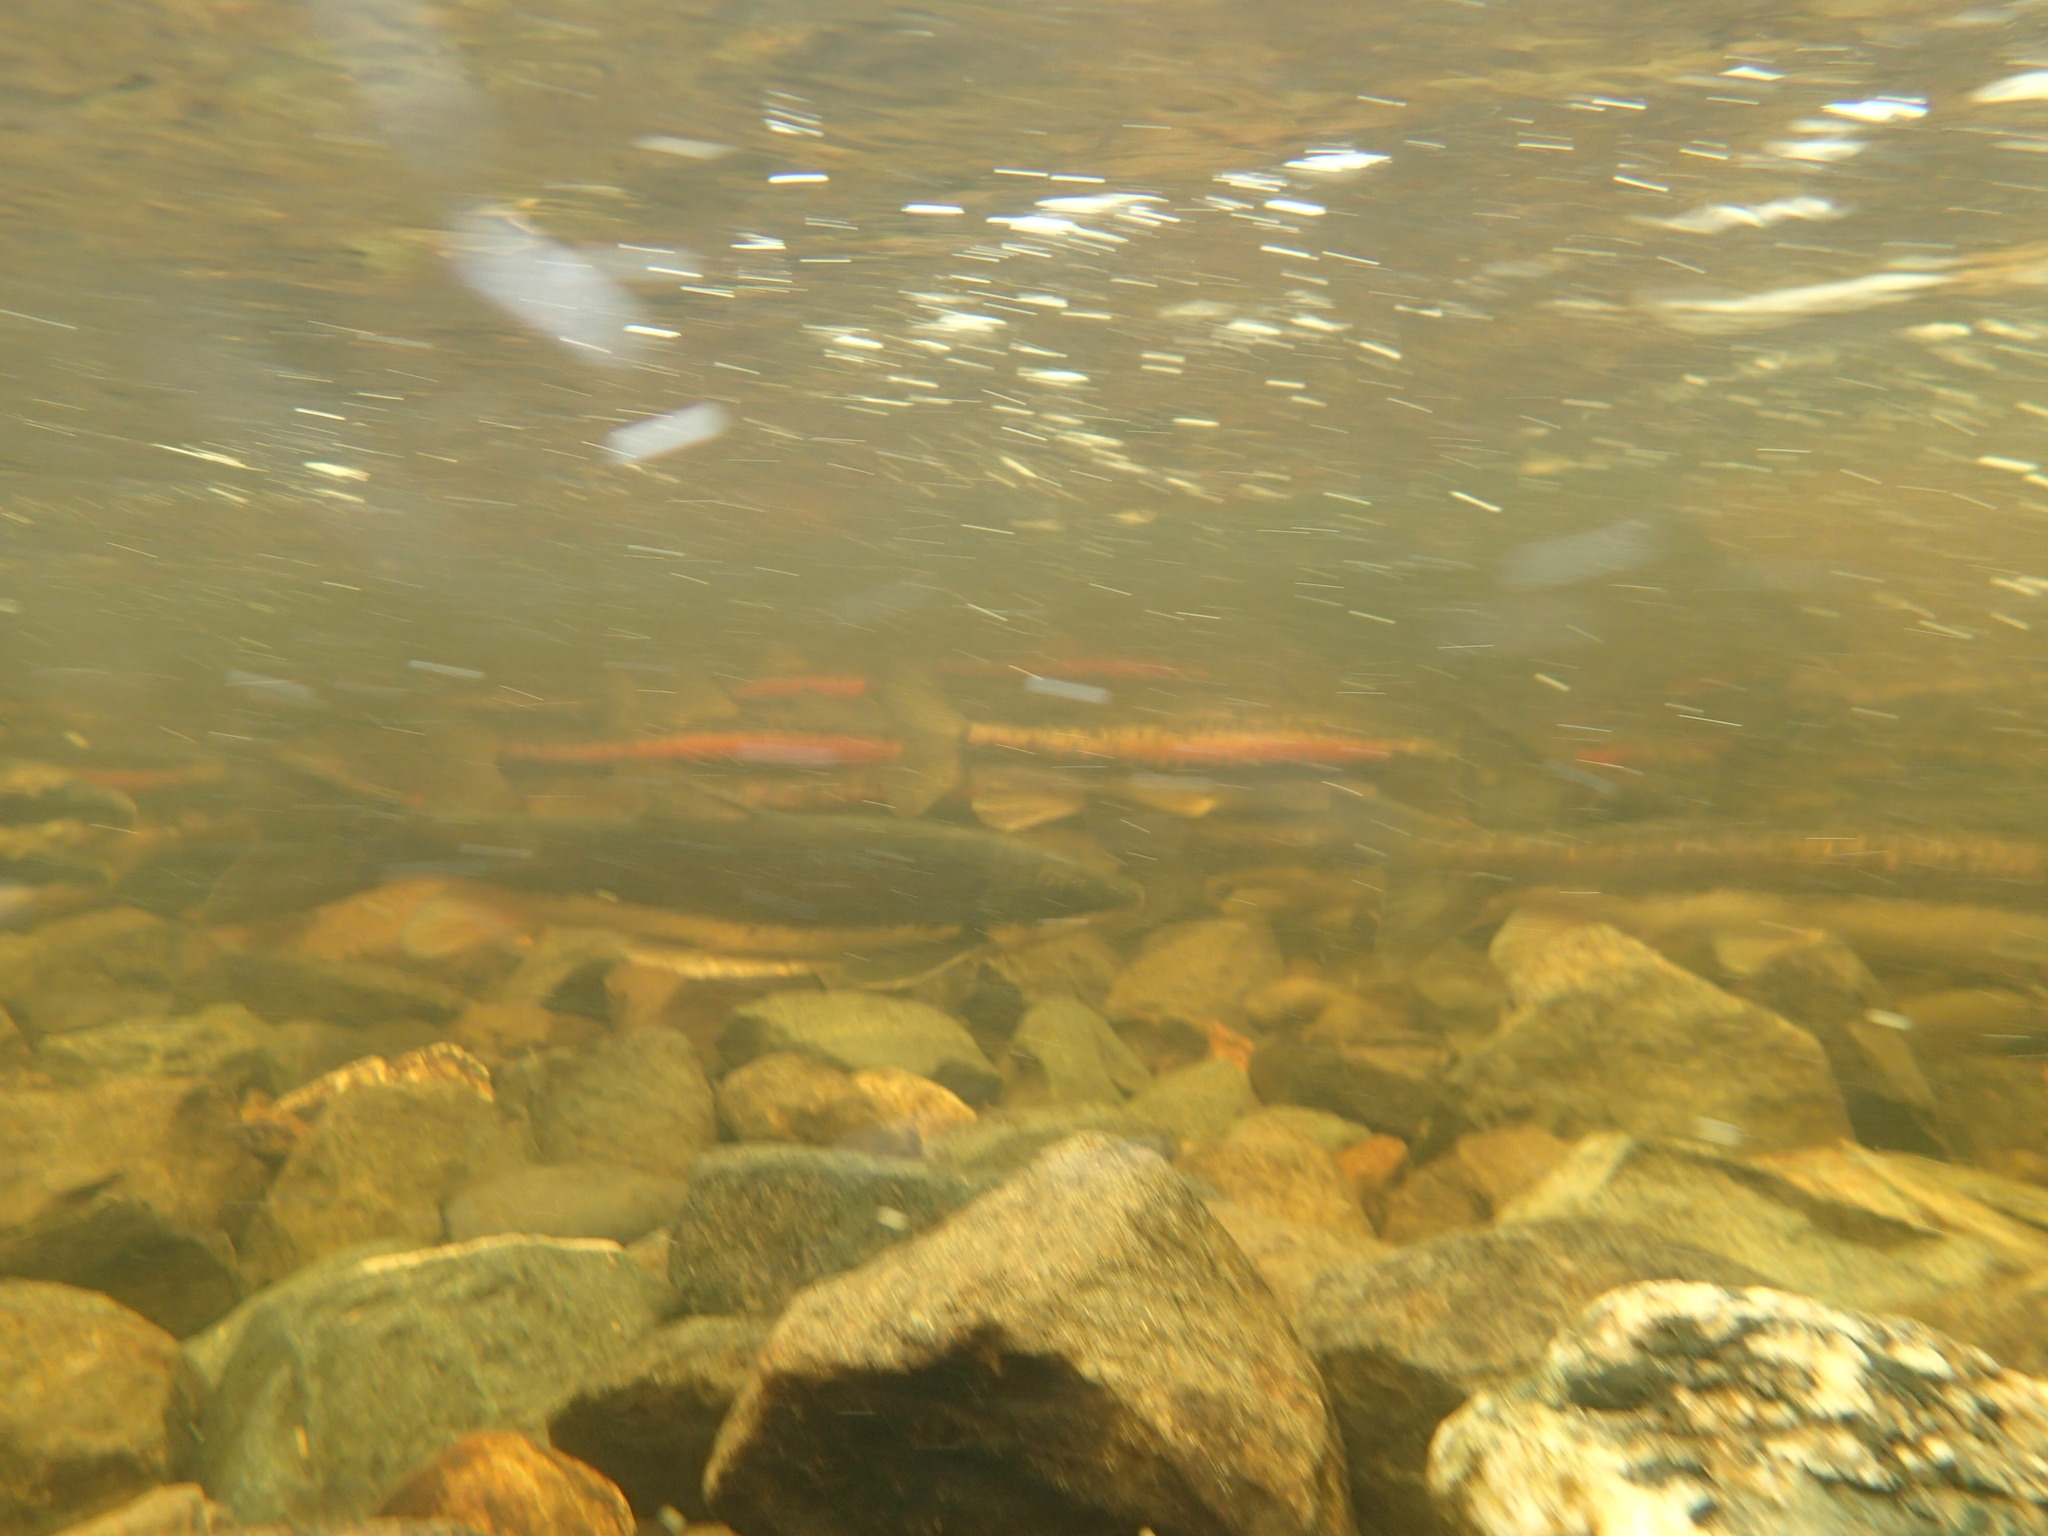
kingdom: Animalia
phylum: Chordata
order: Cypriniformes
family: Catostomidae
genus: Catostomus
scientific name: Catostomus catostomus
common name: Longnose sucker
